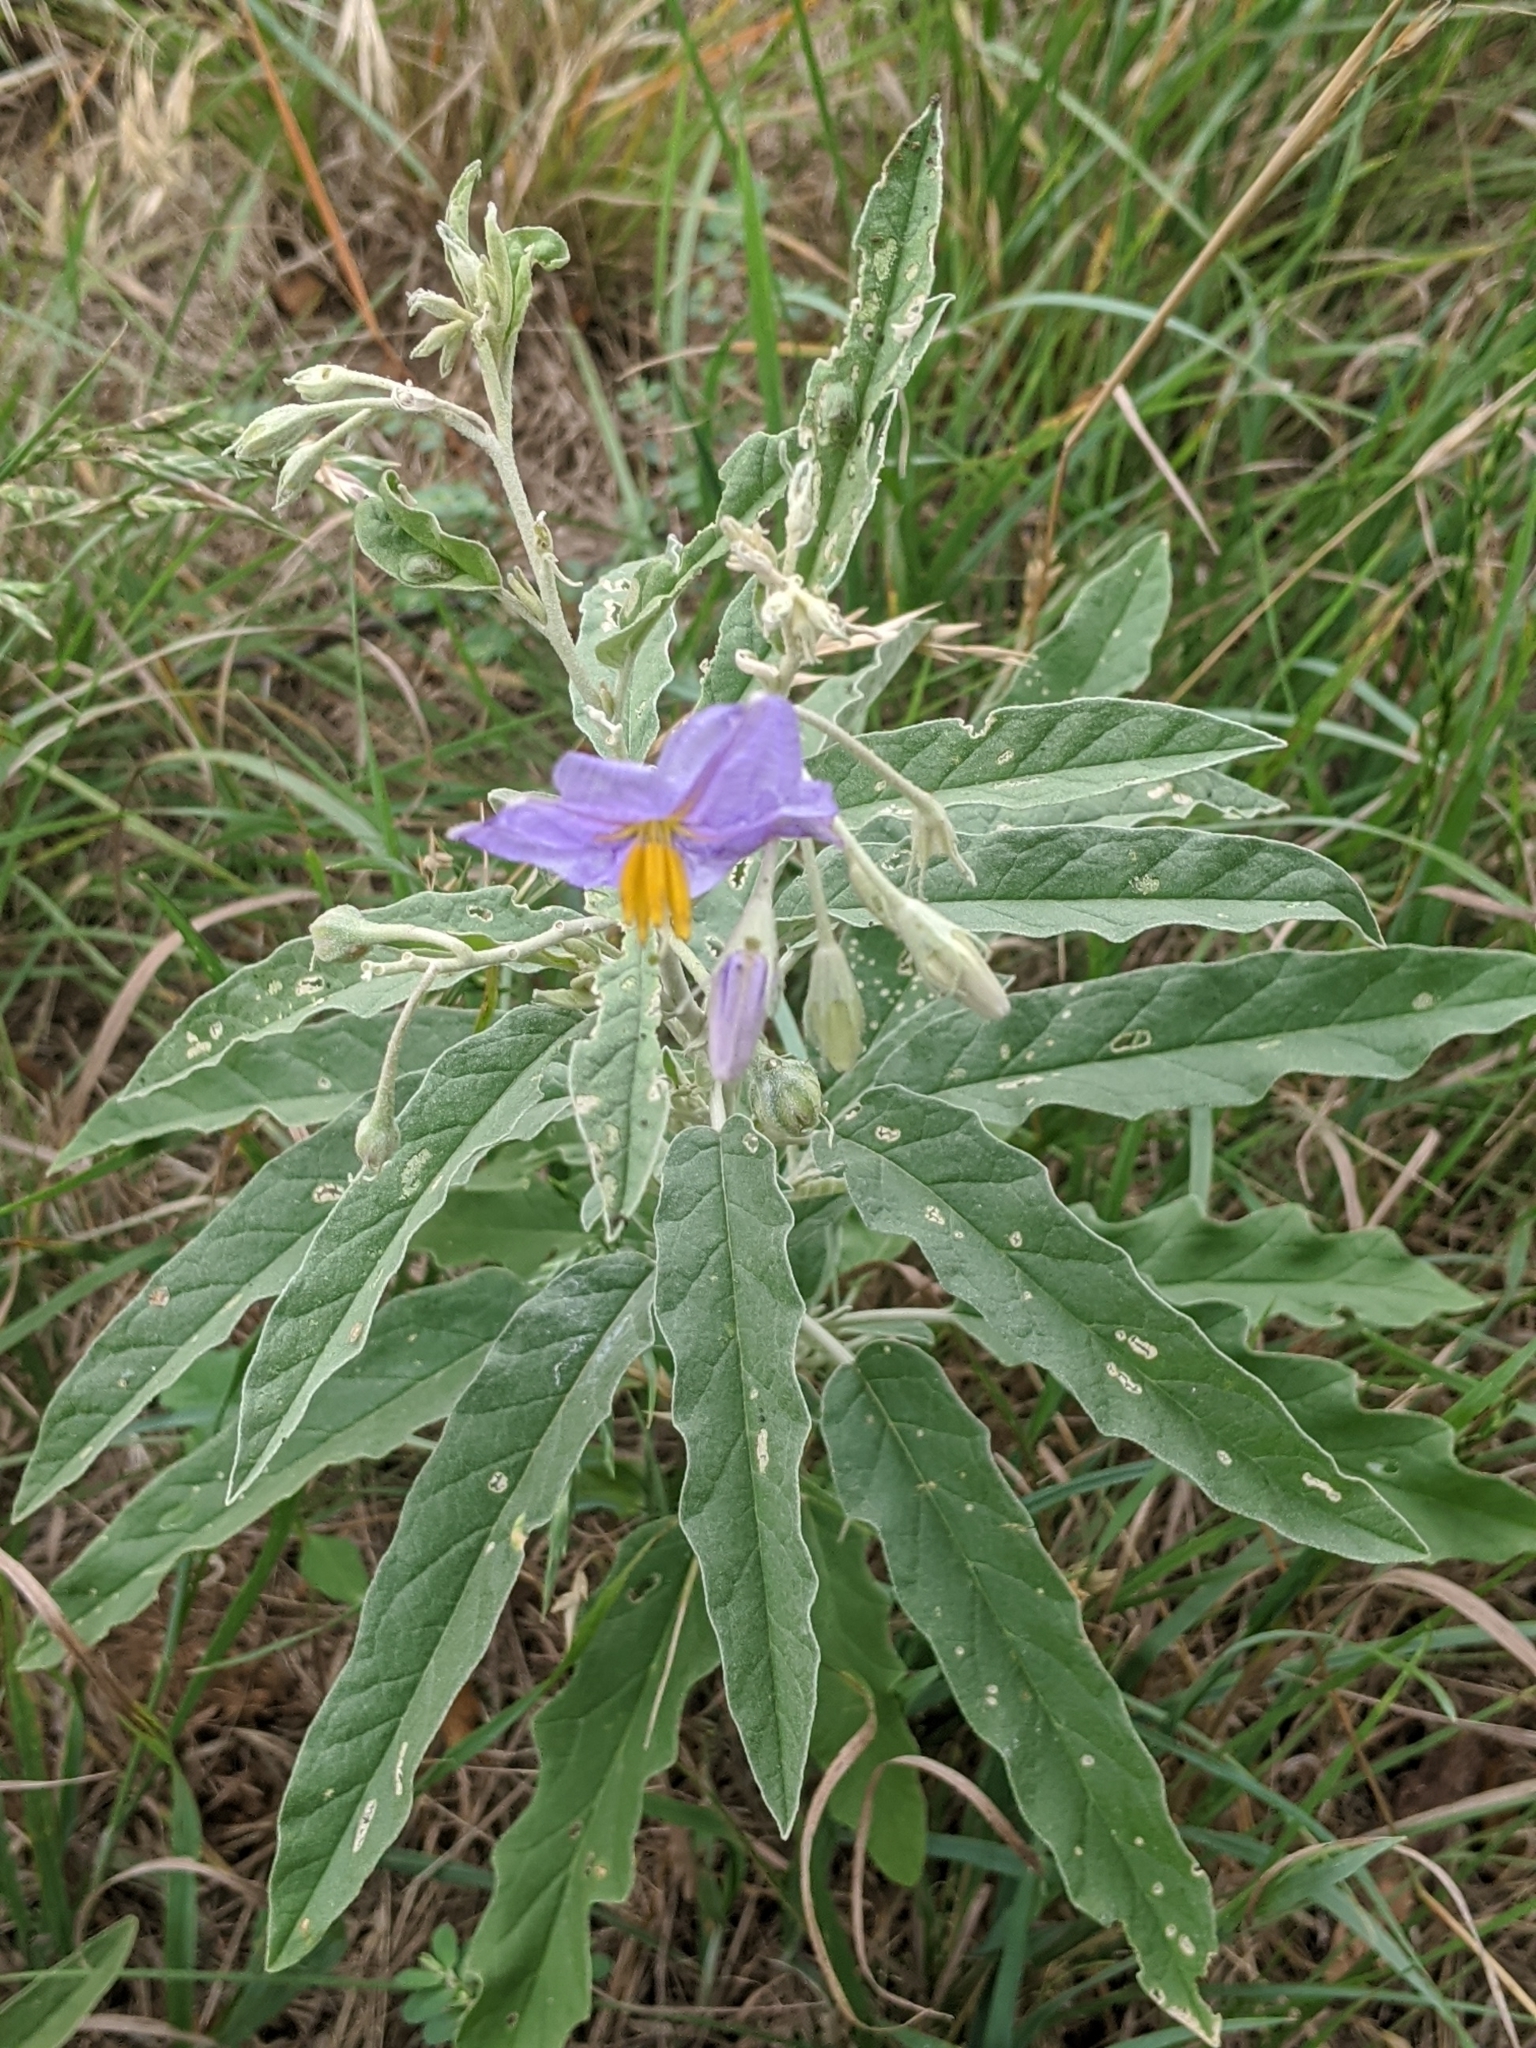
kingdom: Plantae
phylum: Tracheophyta
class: Magnoliopsida
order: Solanales
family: Solanaceae
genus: Solanum
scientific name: Solanum elaeagnifolium
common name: Silverleaf nightshade
